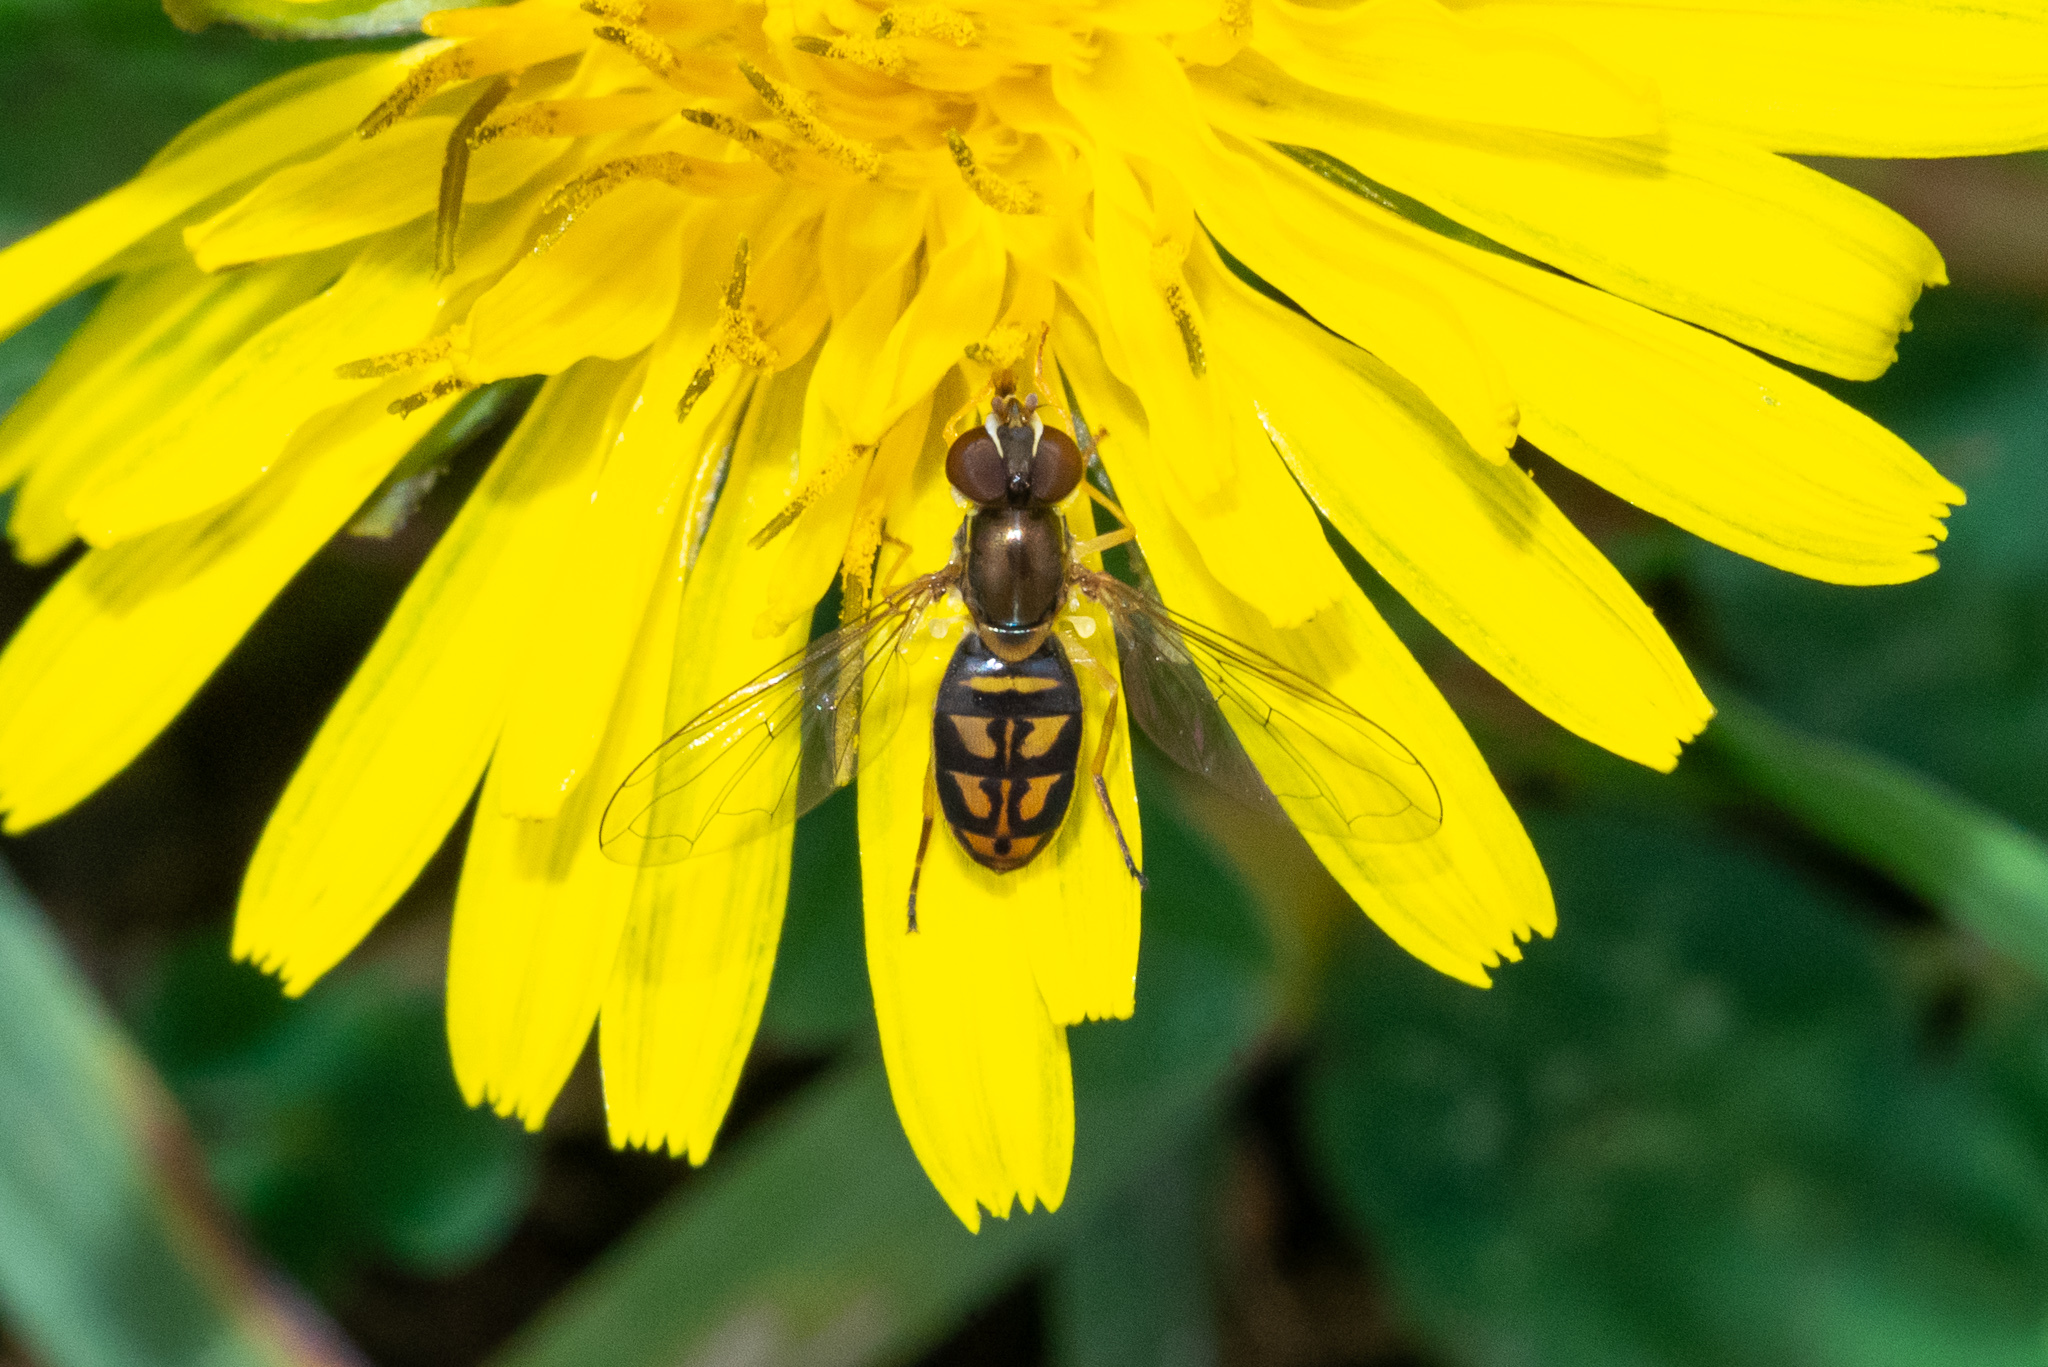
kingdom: Animalia
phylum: Arthropoda
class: Insecta
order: Diptera
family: Syrphidae
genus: Toxomerus
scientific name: Toxomerus marginatus
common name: Syrphid fly
